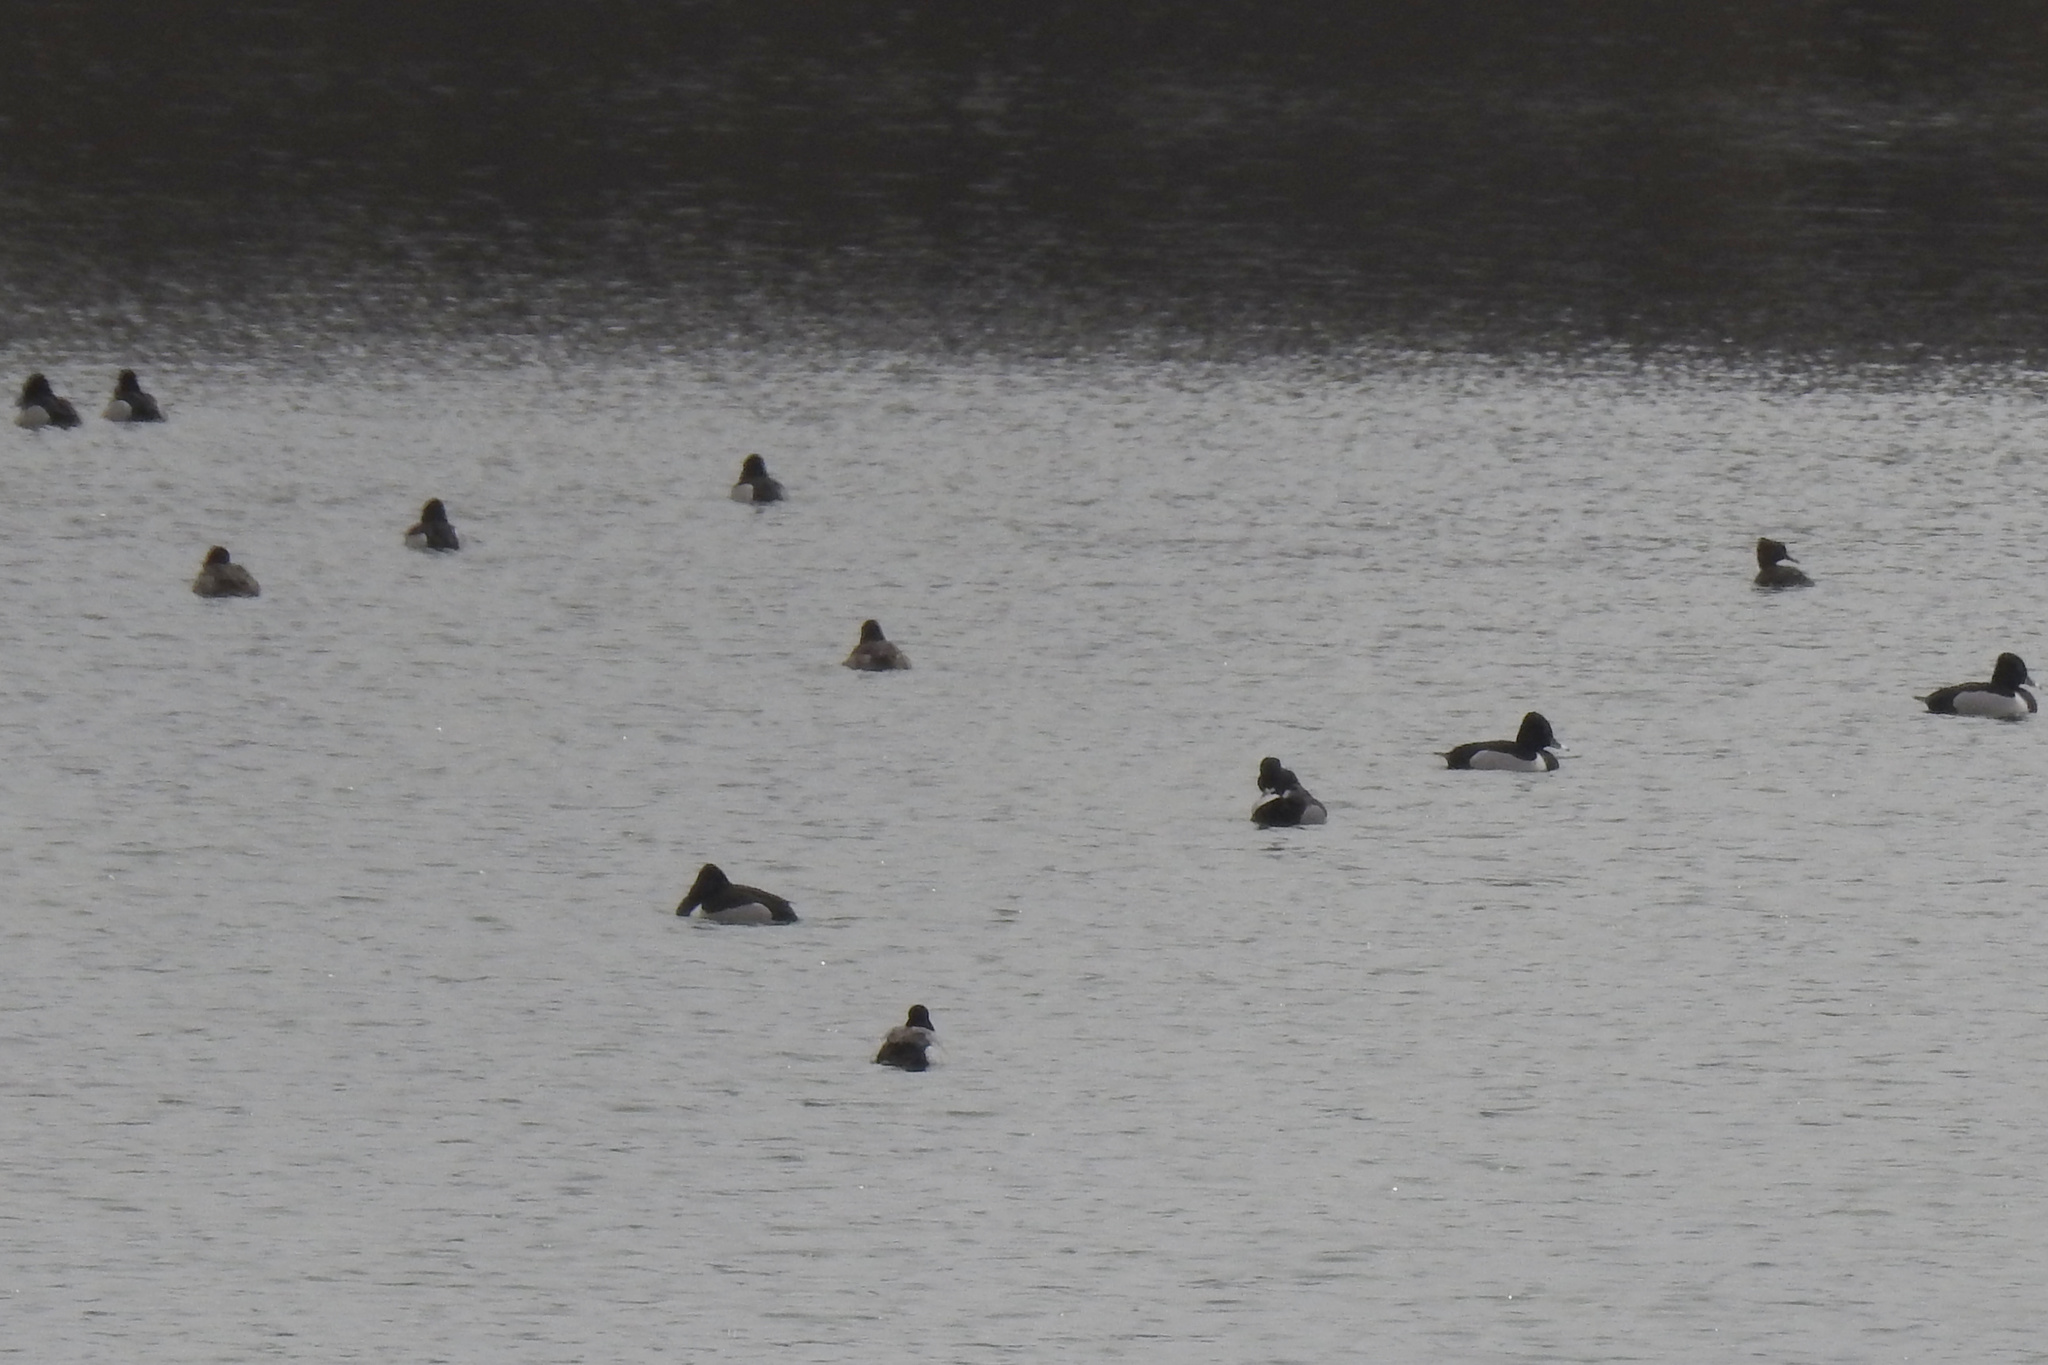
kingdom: Animalia
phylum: Chordata
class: Aves
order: Anseriformes
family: Anatidae
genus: Aythya
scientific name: Aythya collaris
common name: Ring-necked duck
